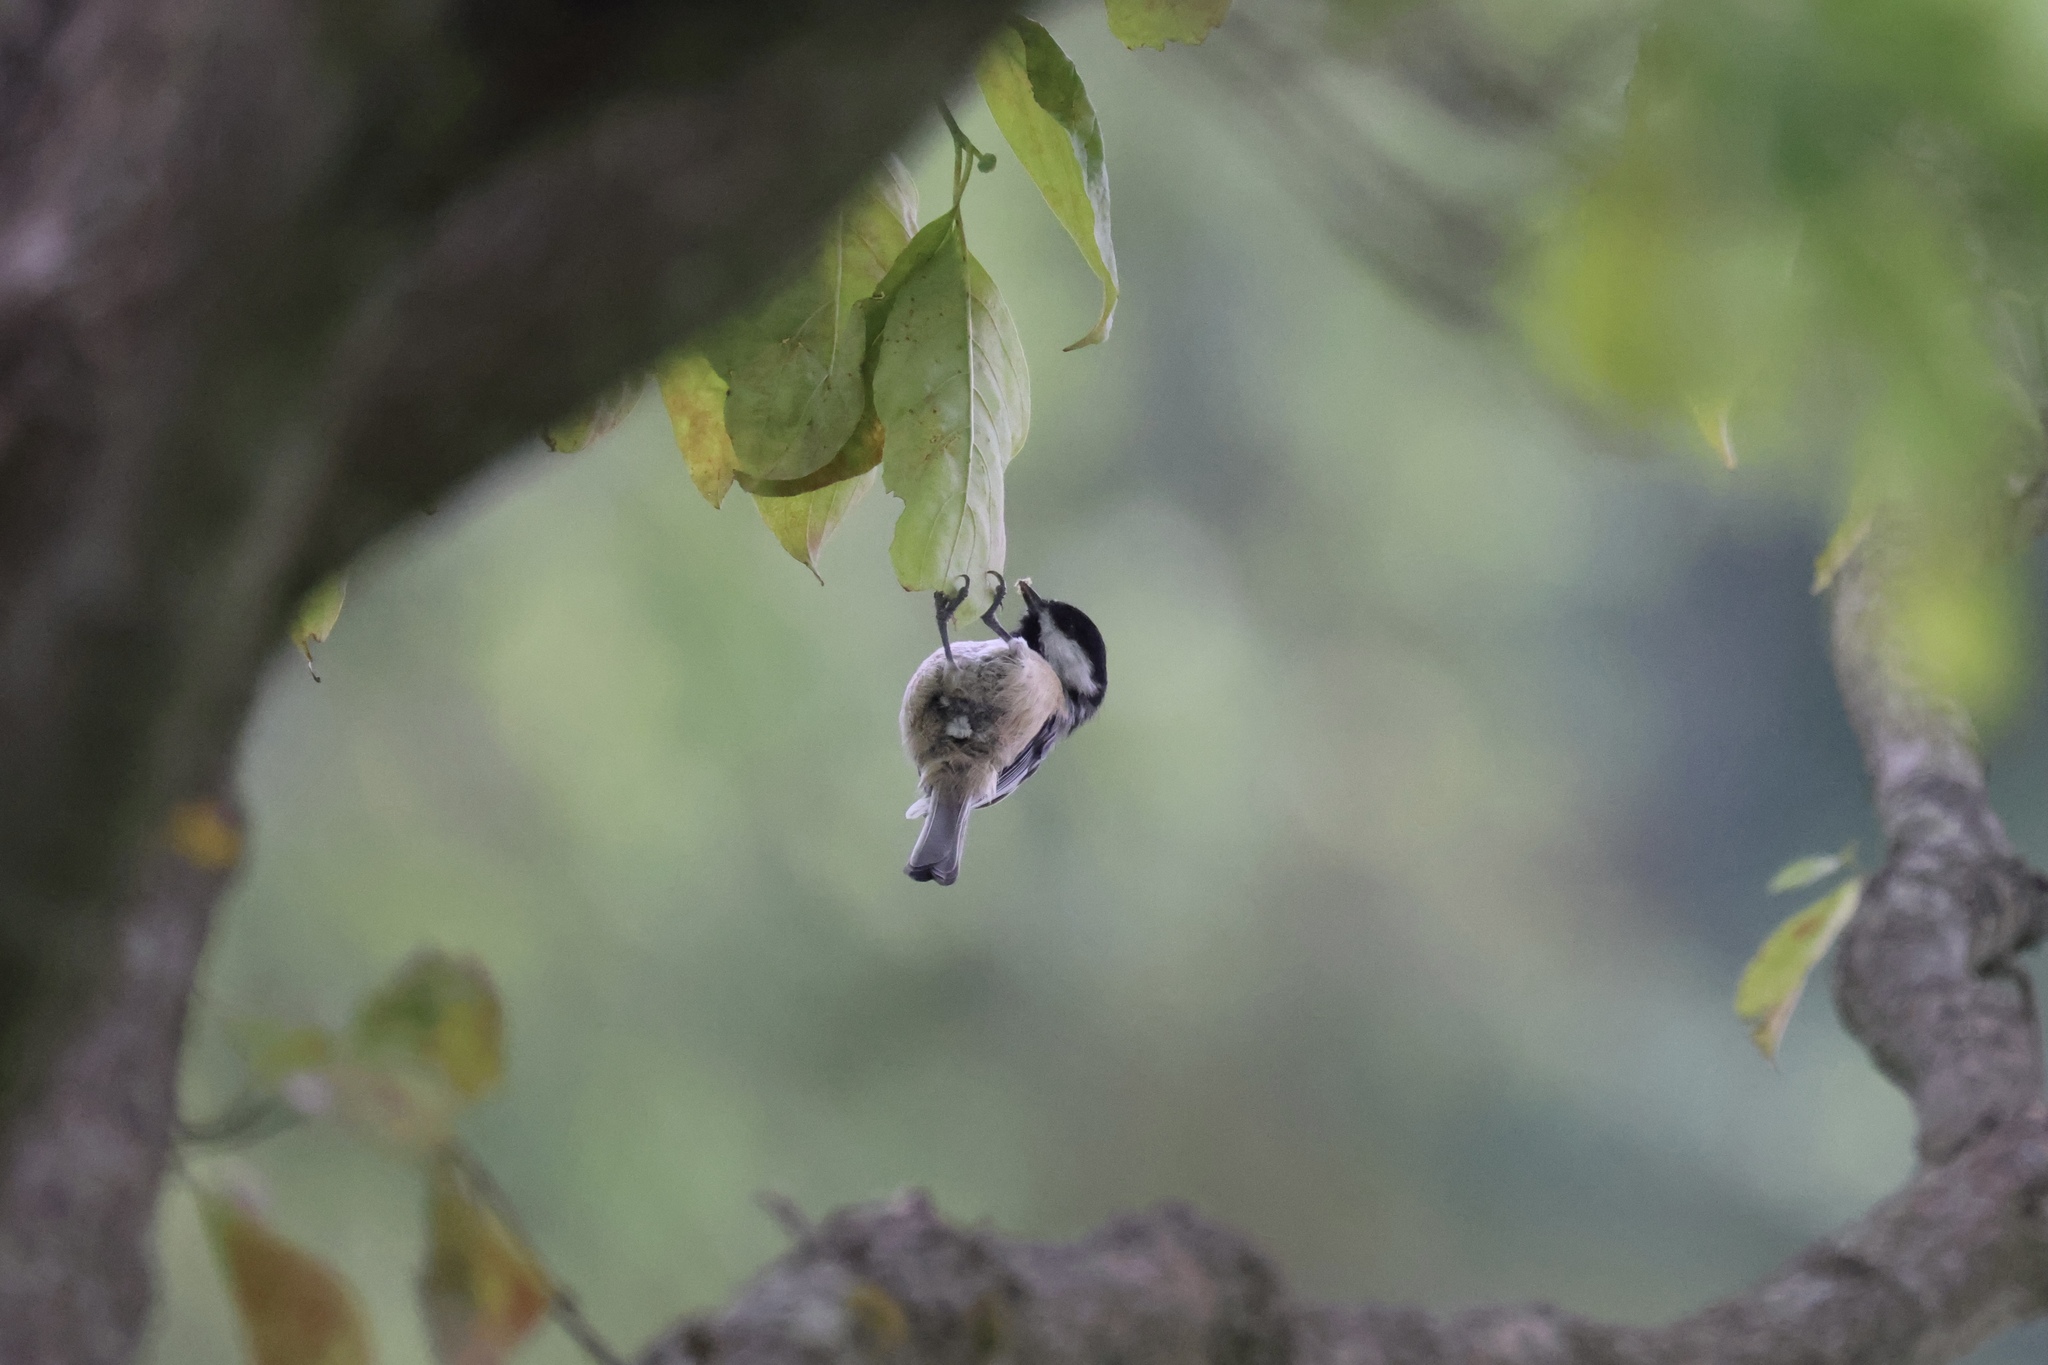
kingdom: Animalia
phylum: Chordata
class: Aves
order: Passeriformes
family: Paridae
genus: Poecile
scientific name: Poecile carolinensis
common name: Carolina chickadee
